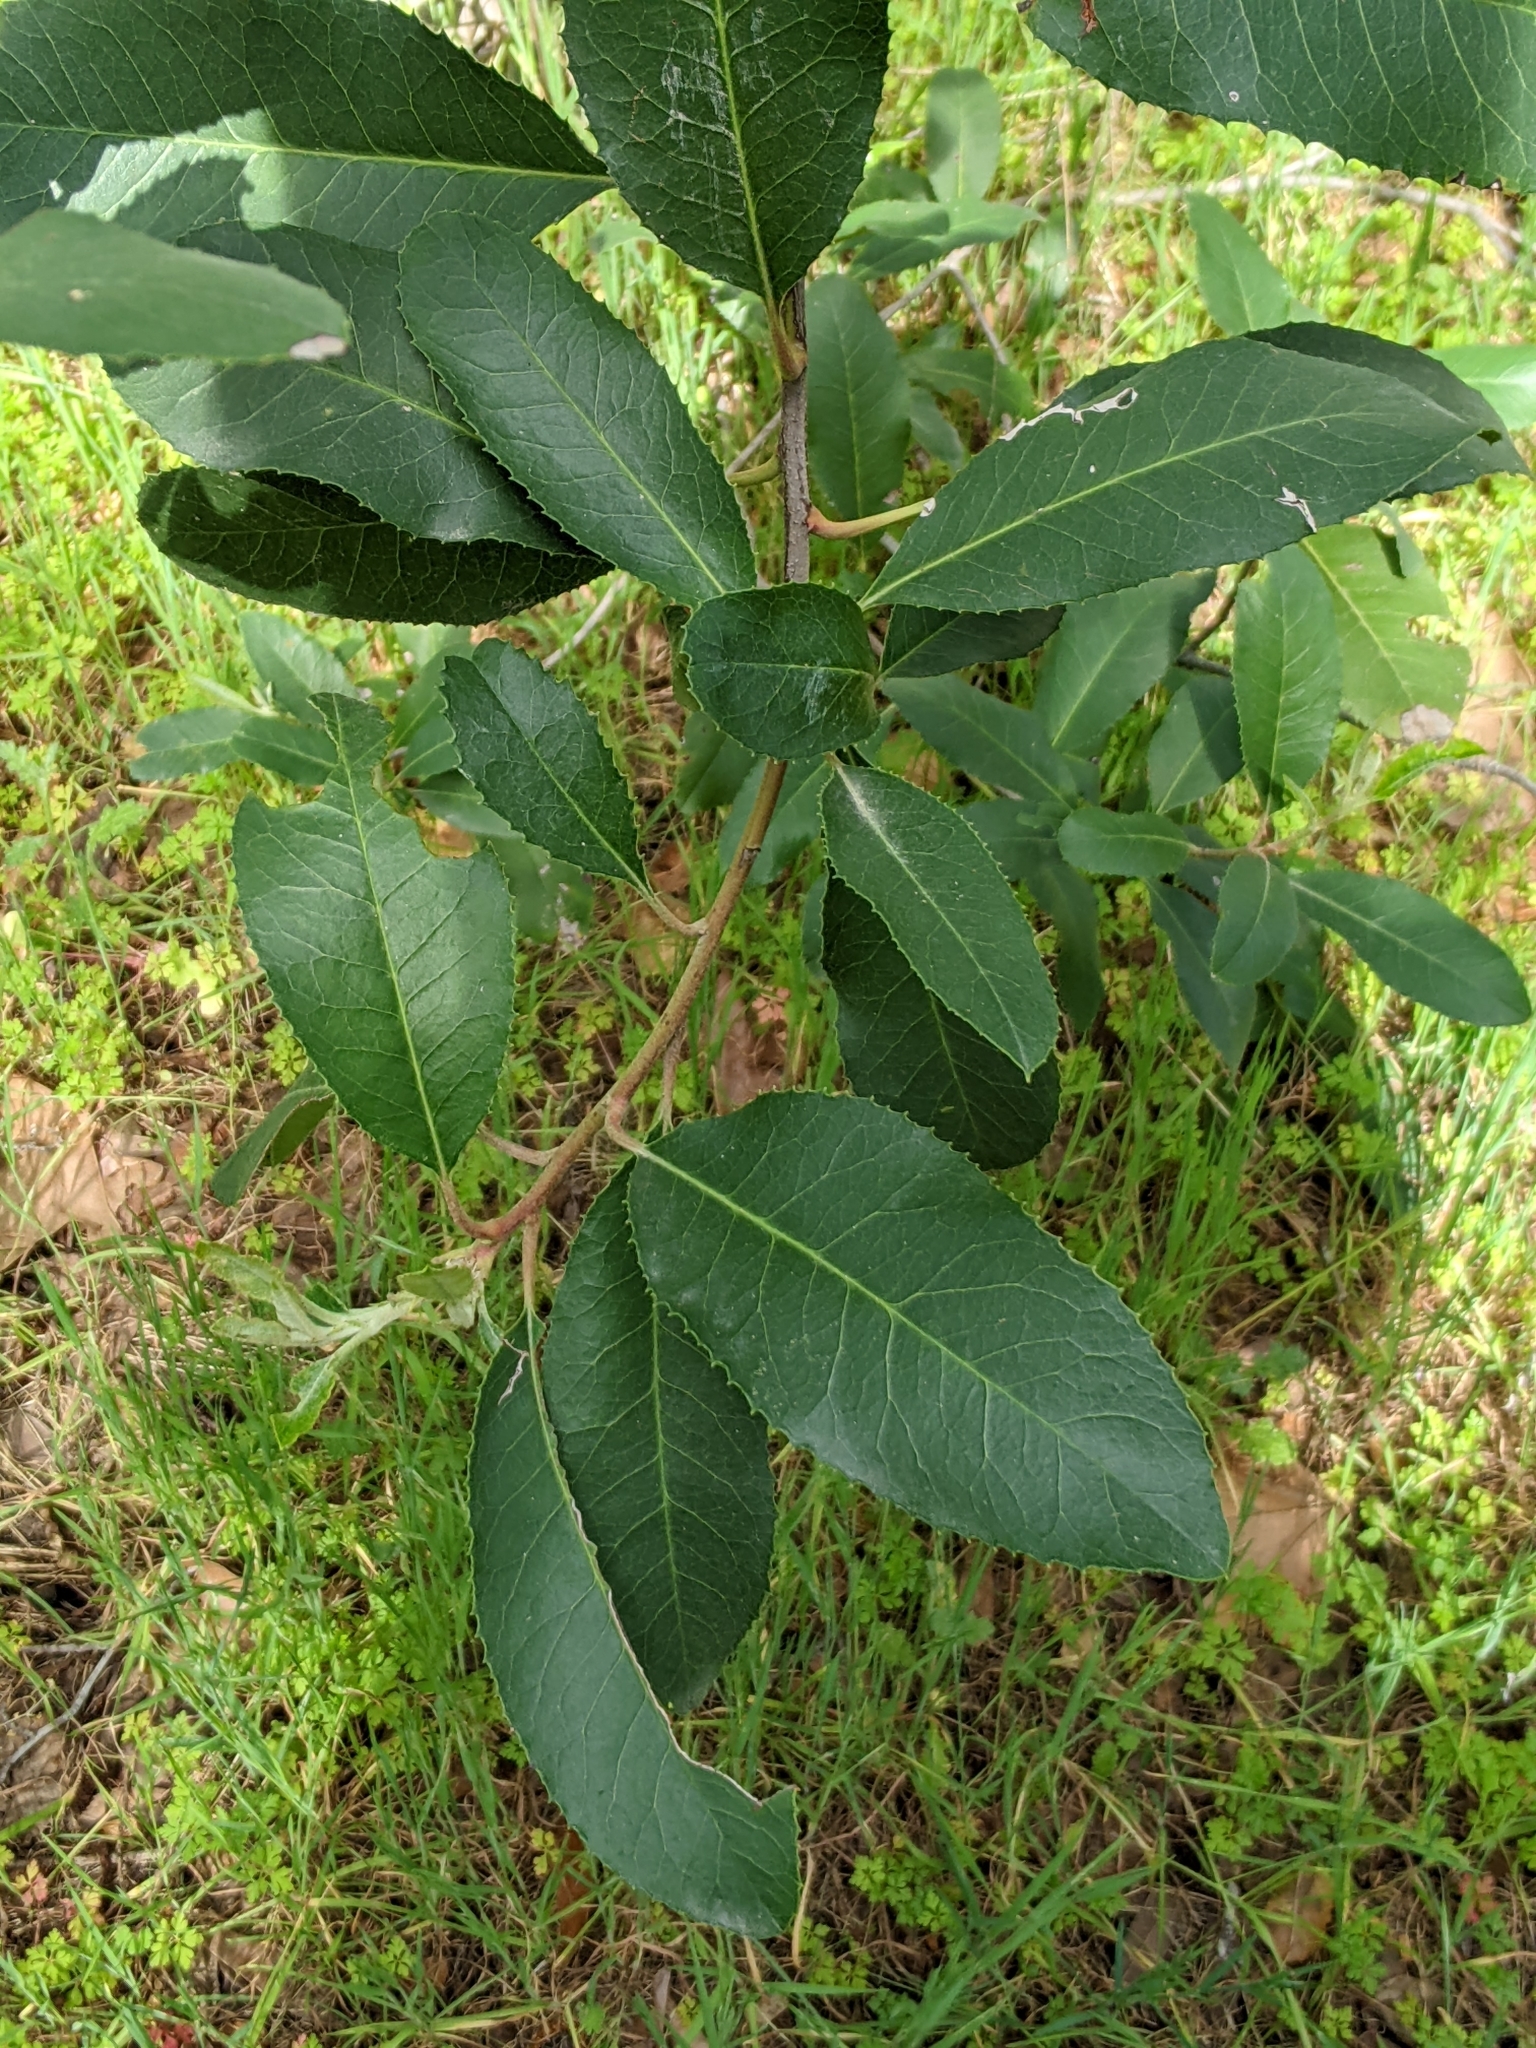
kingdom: Plantae
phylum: Tracheophyta
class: Magnoliopsida
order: Rosales
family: Rosaceae
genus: Heteromeles
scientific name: Heteromeles arbutifolia
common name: California-holly
